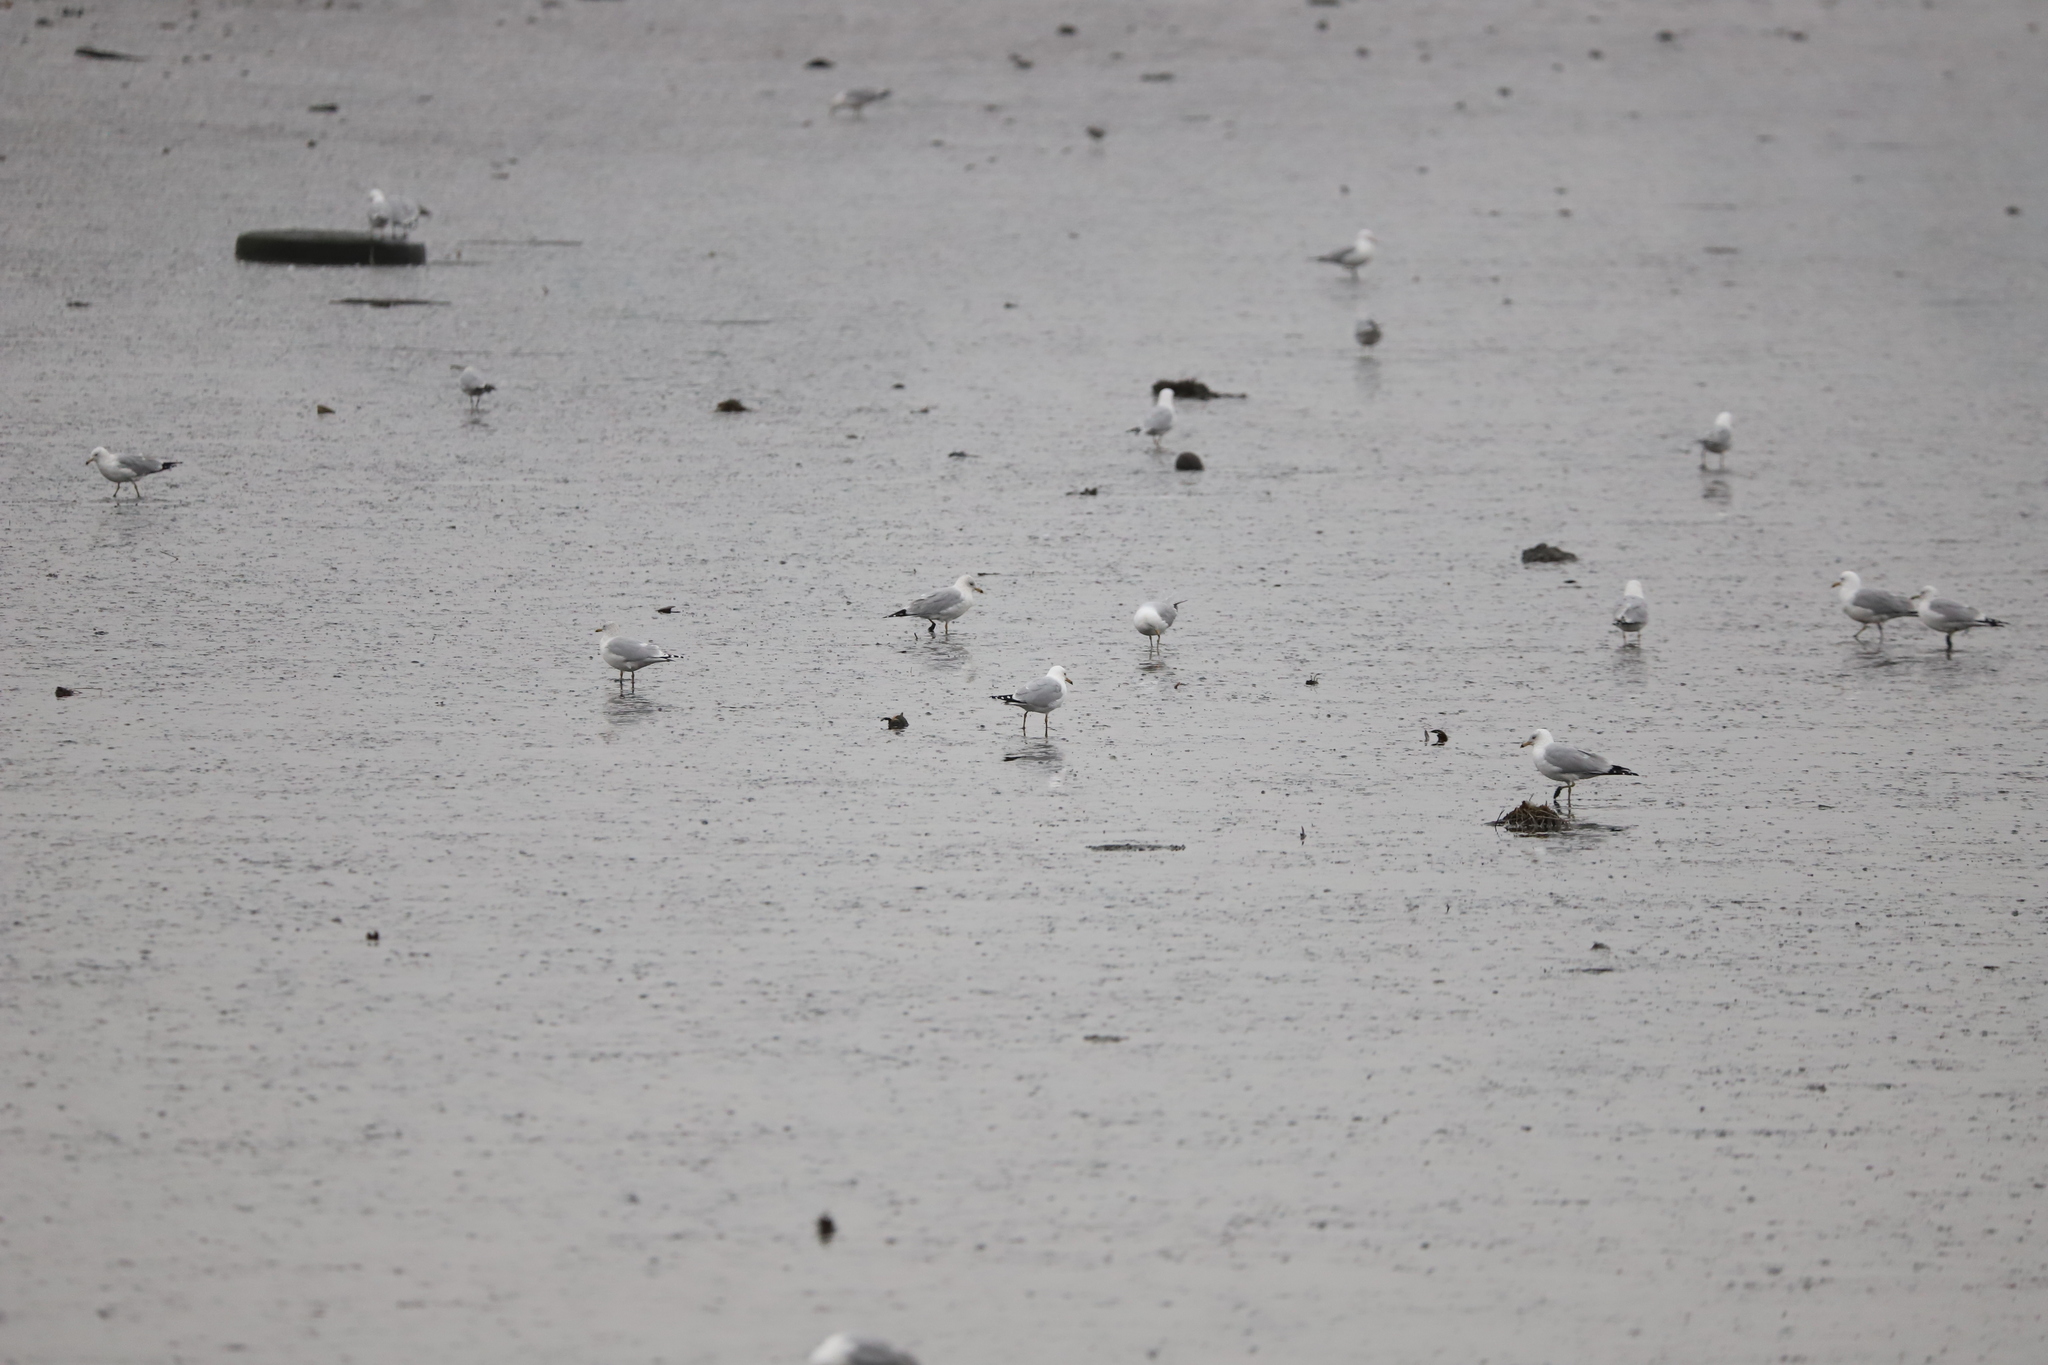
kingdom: Animalia
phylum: Chordata
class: Aves
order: Charadriiformes
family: Laridae
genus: Larus
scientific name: Larus delawarensis
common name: Ring-billed gull
